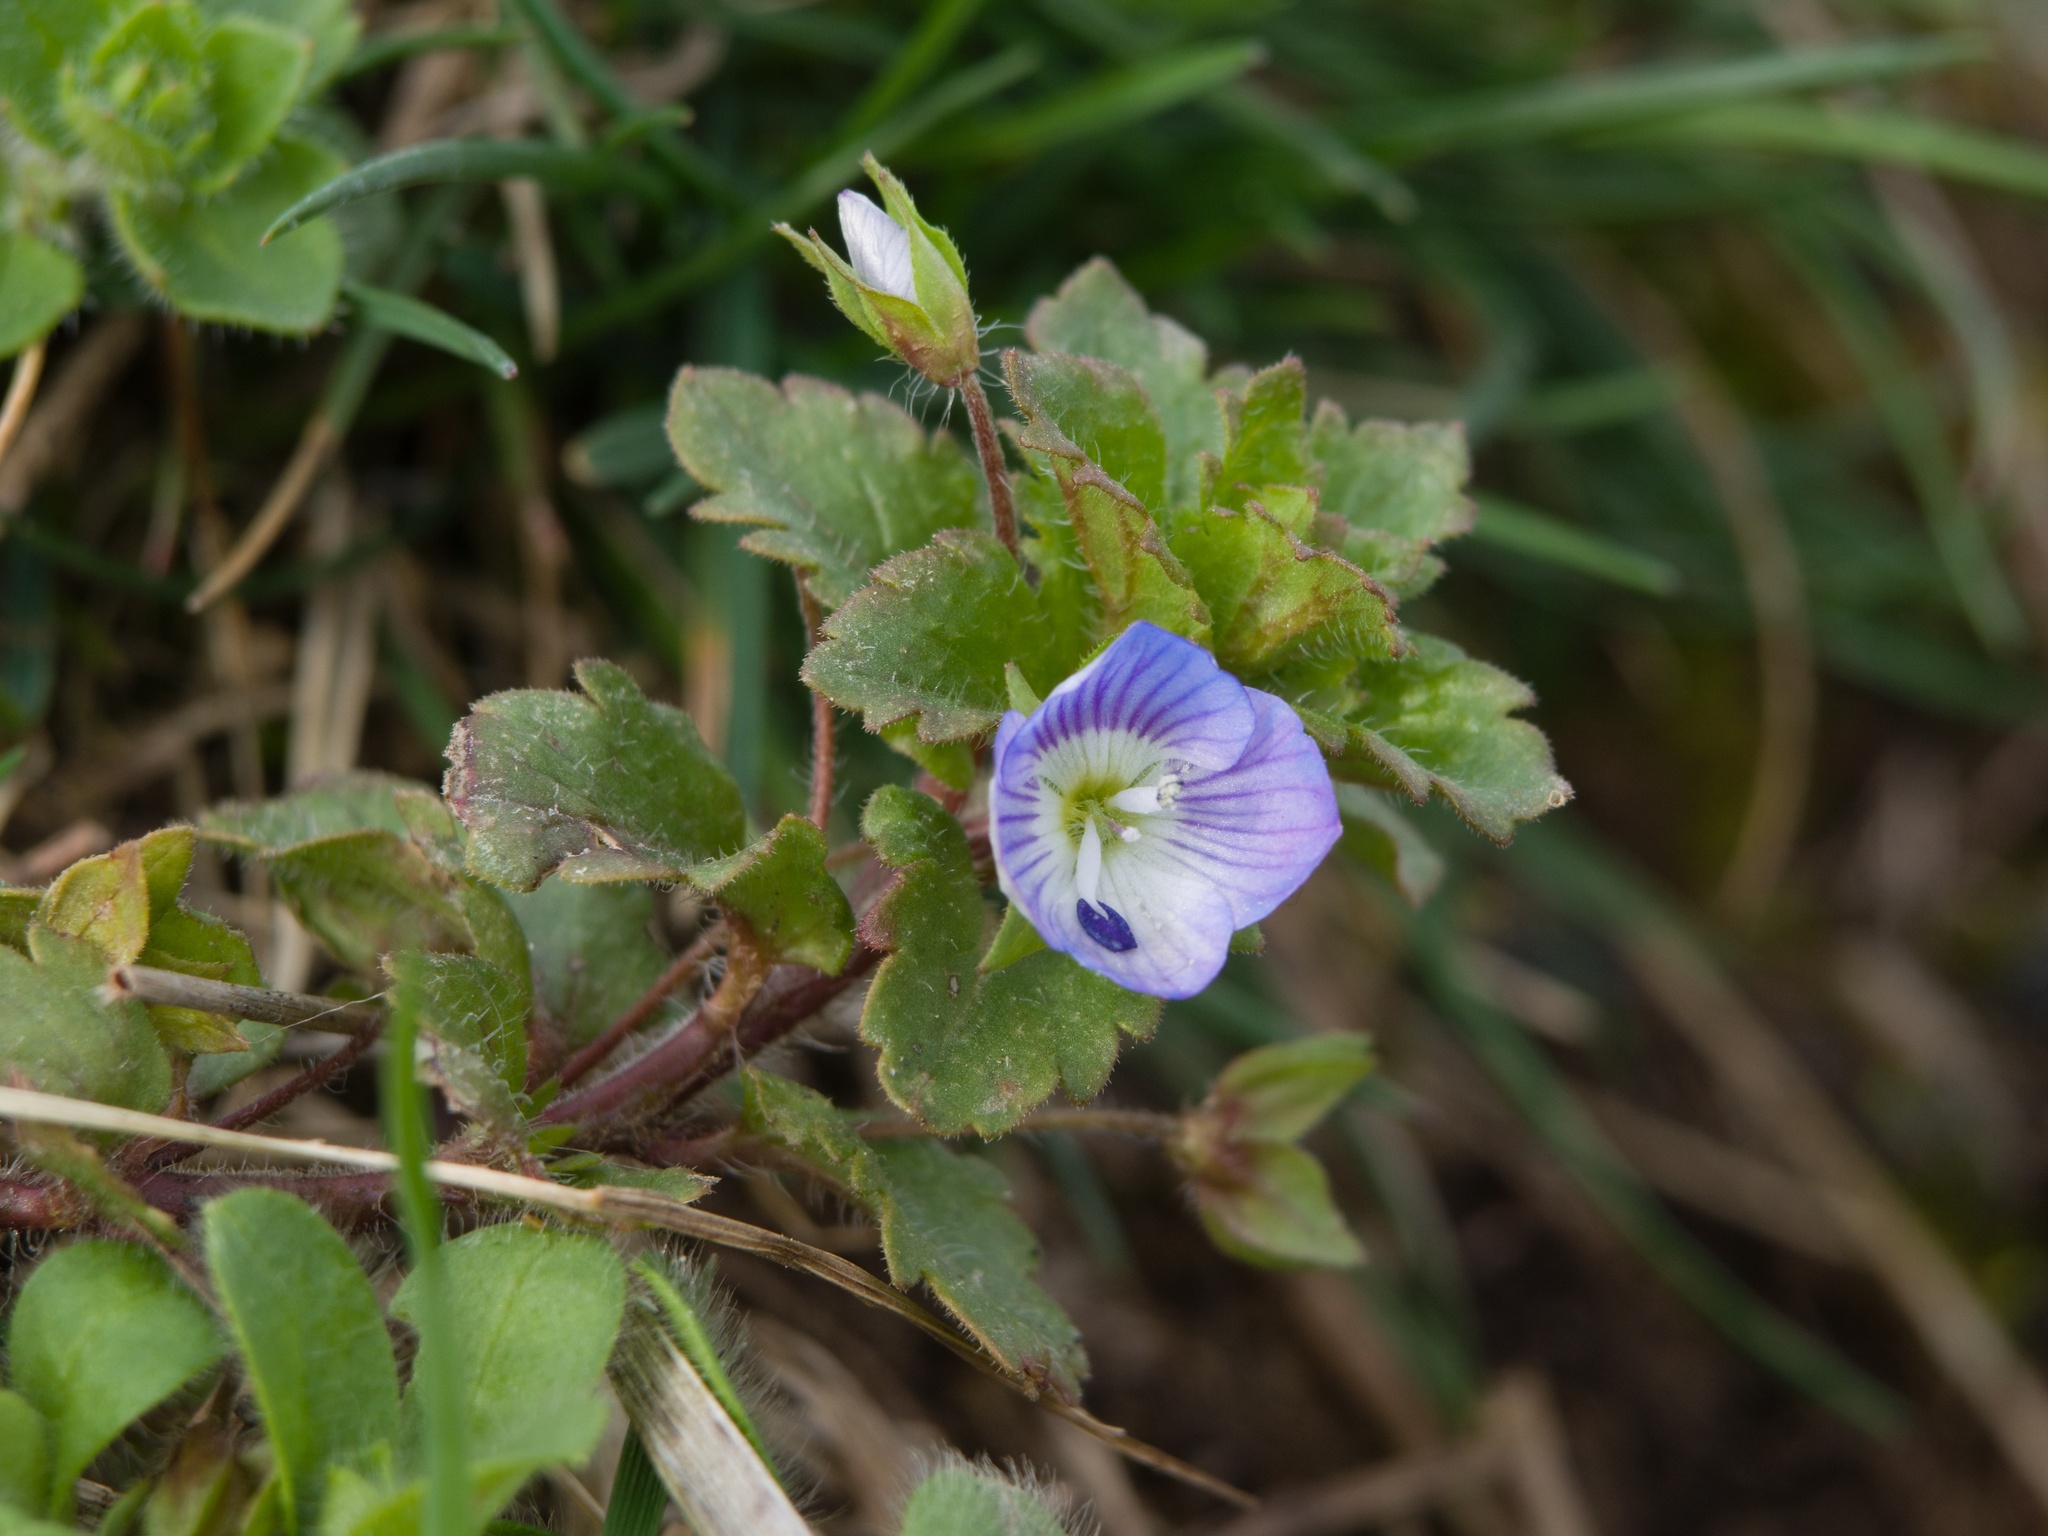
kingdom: Plantae
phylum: Tracheophyta
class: Magnoliopsida
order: Lamiales
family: Plantaginaceae
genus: Veronica
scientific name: Veronica persica
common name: Common field-speedwell
